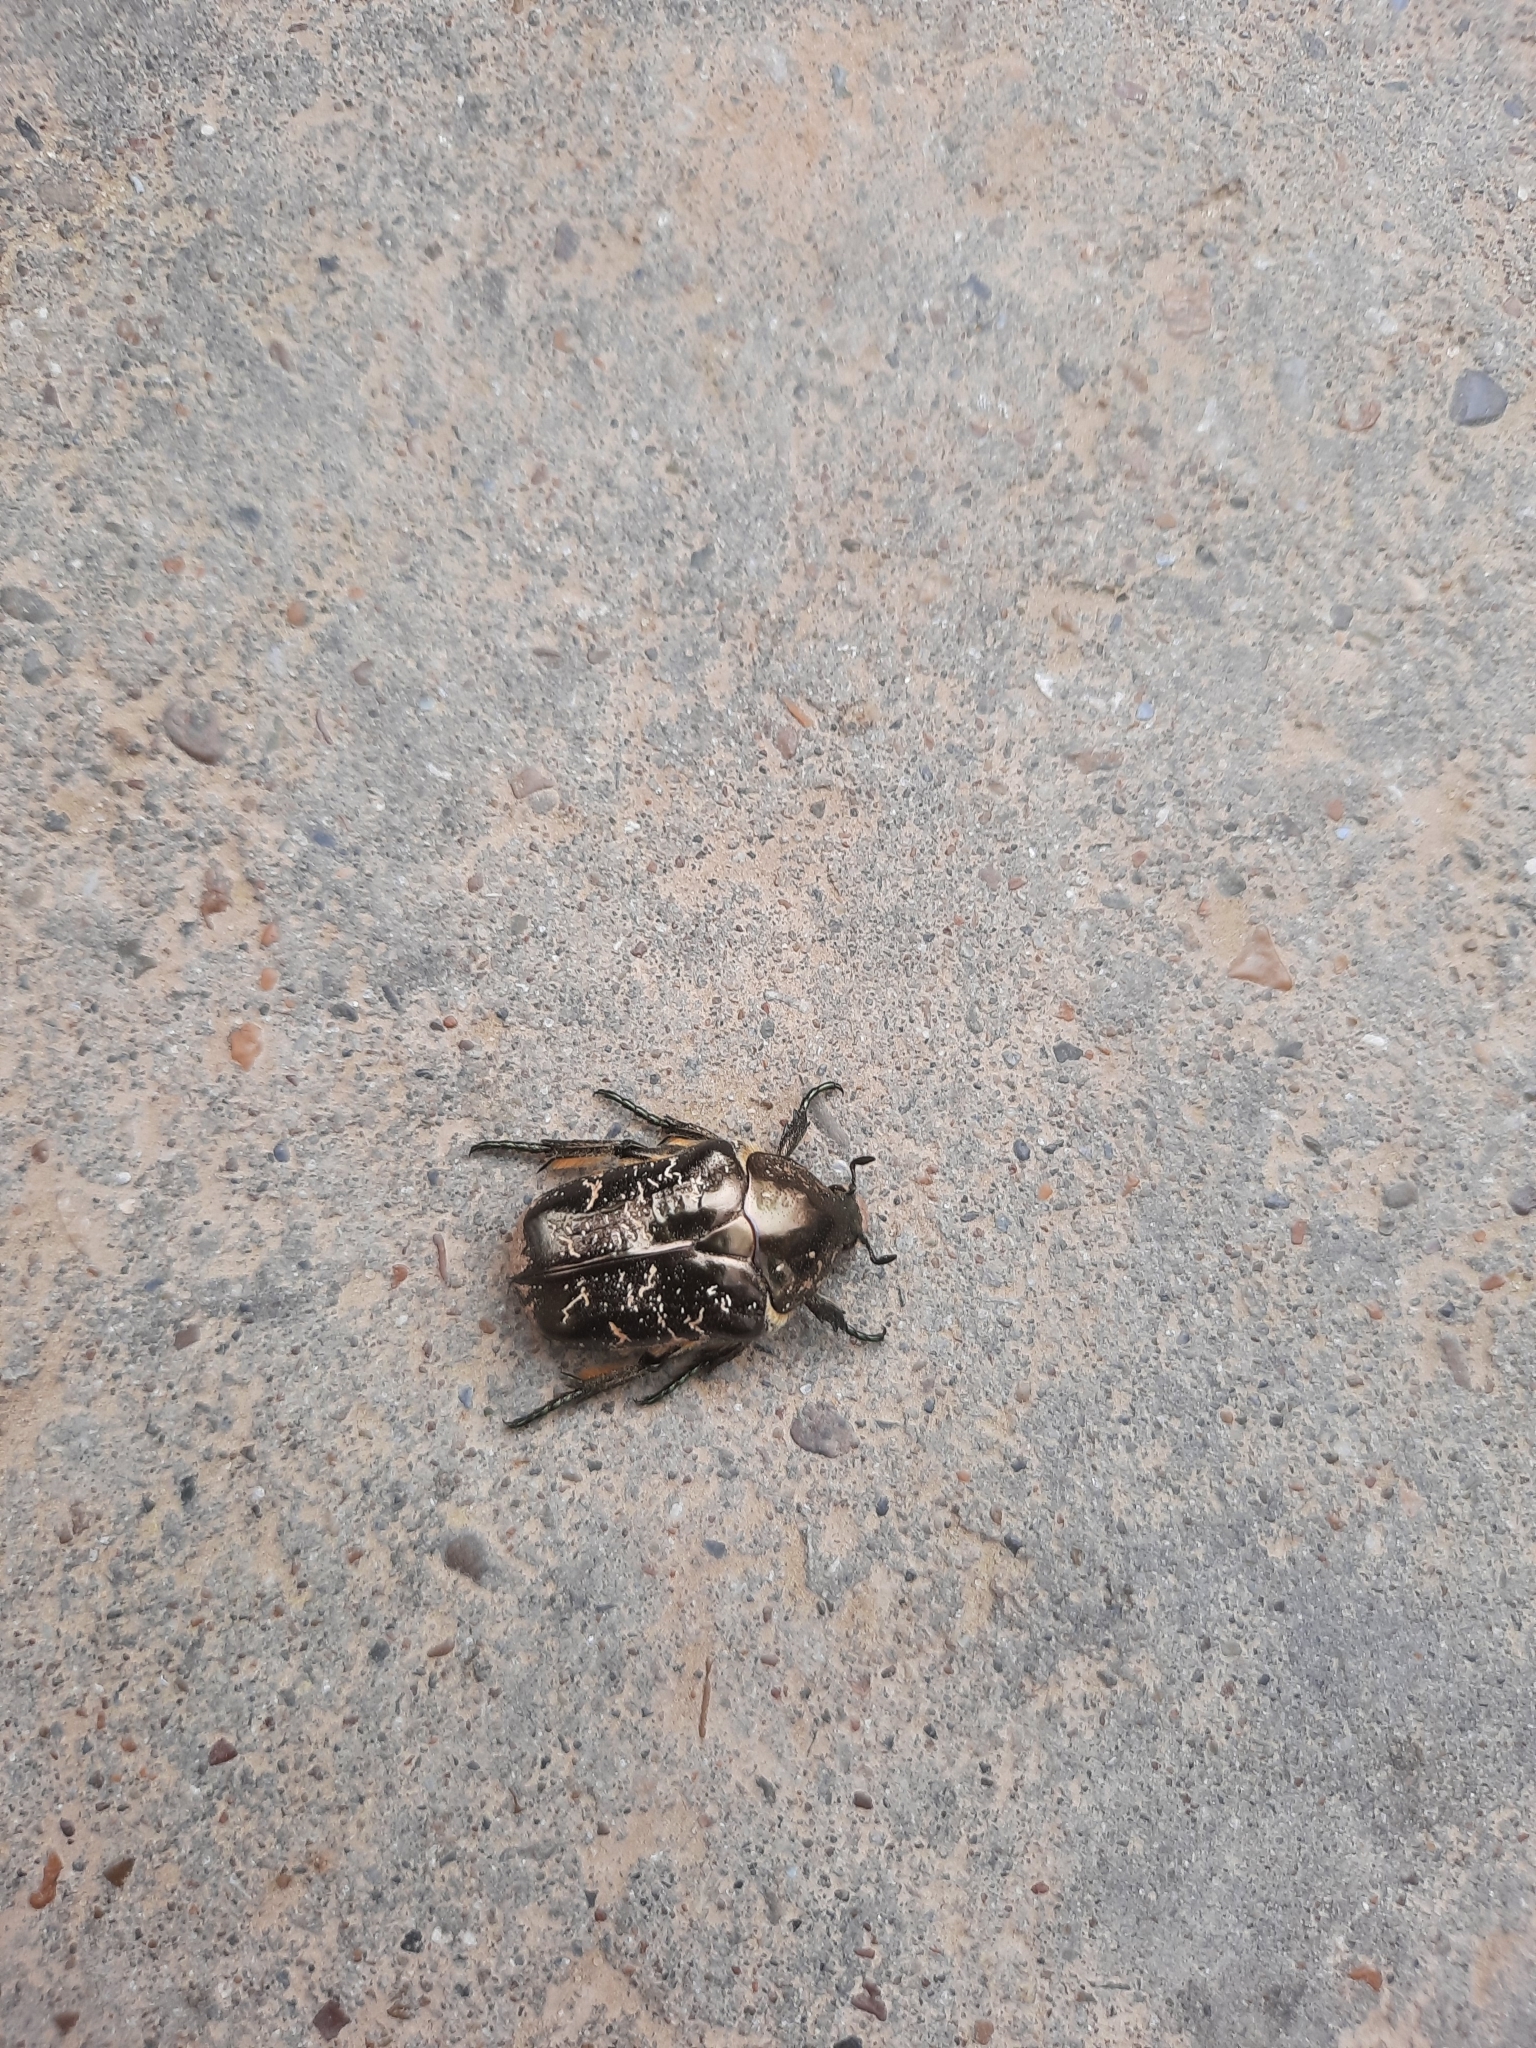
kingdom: Animalia
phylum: Arthropoda
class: Insecta
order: Coleoptera
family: Scarabaeidae
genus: Protaetia
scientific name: Protaetia marmorata
